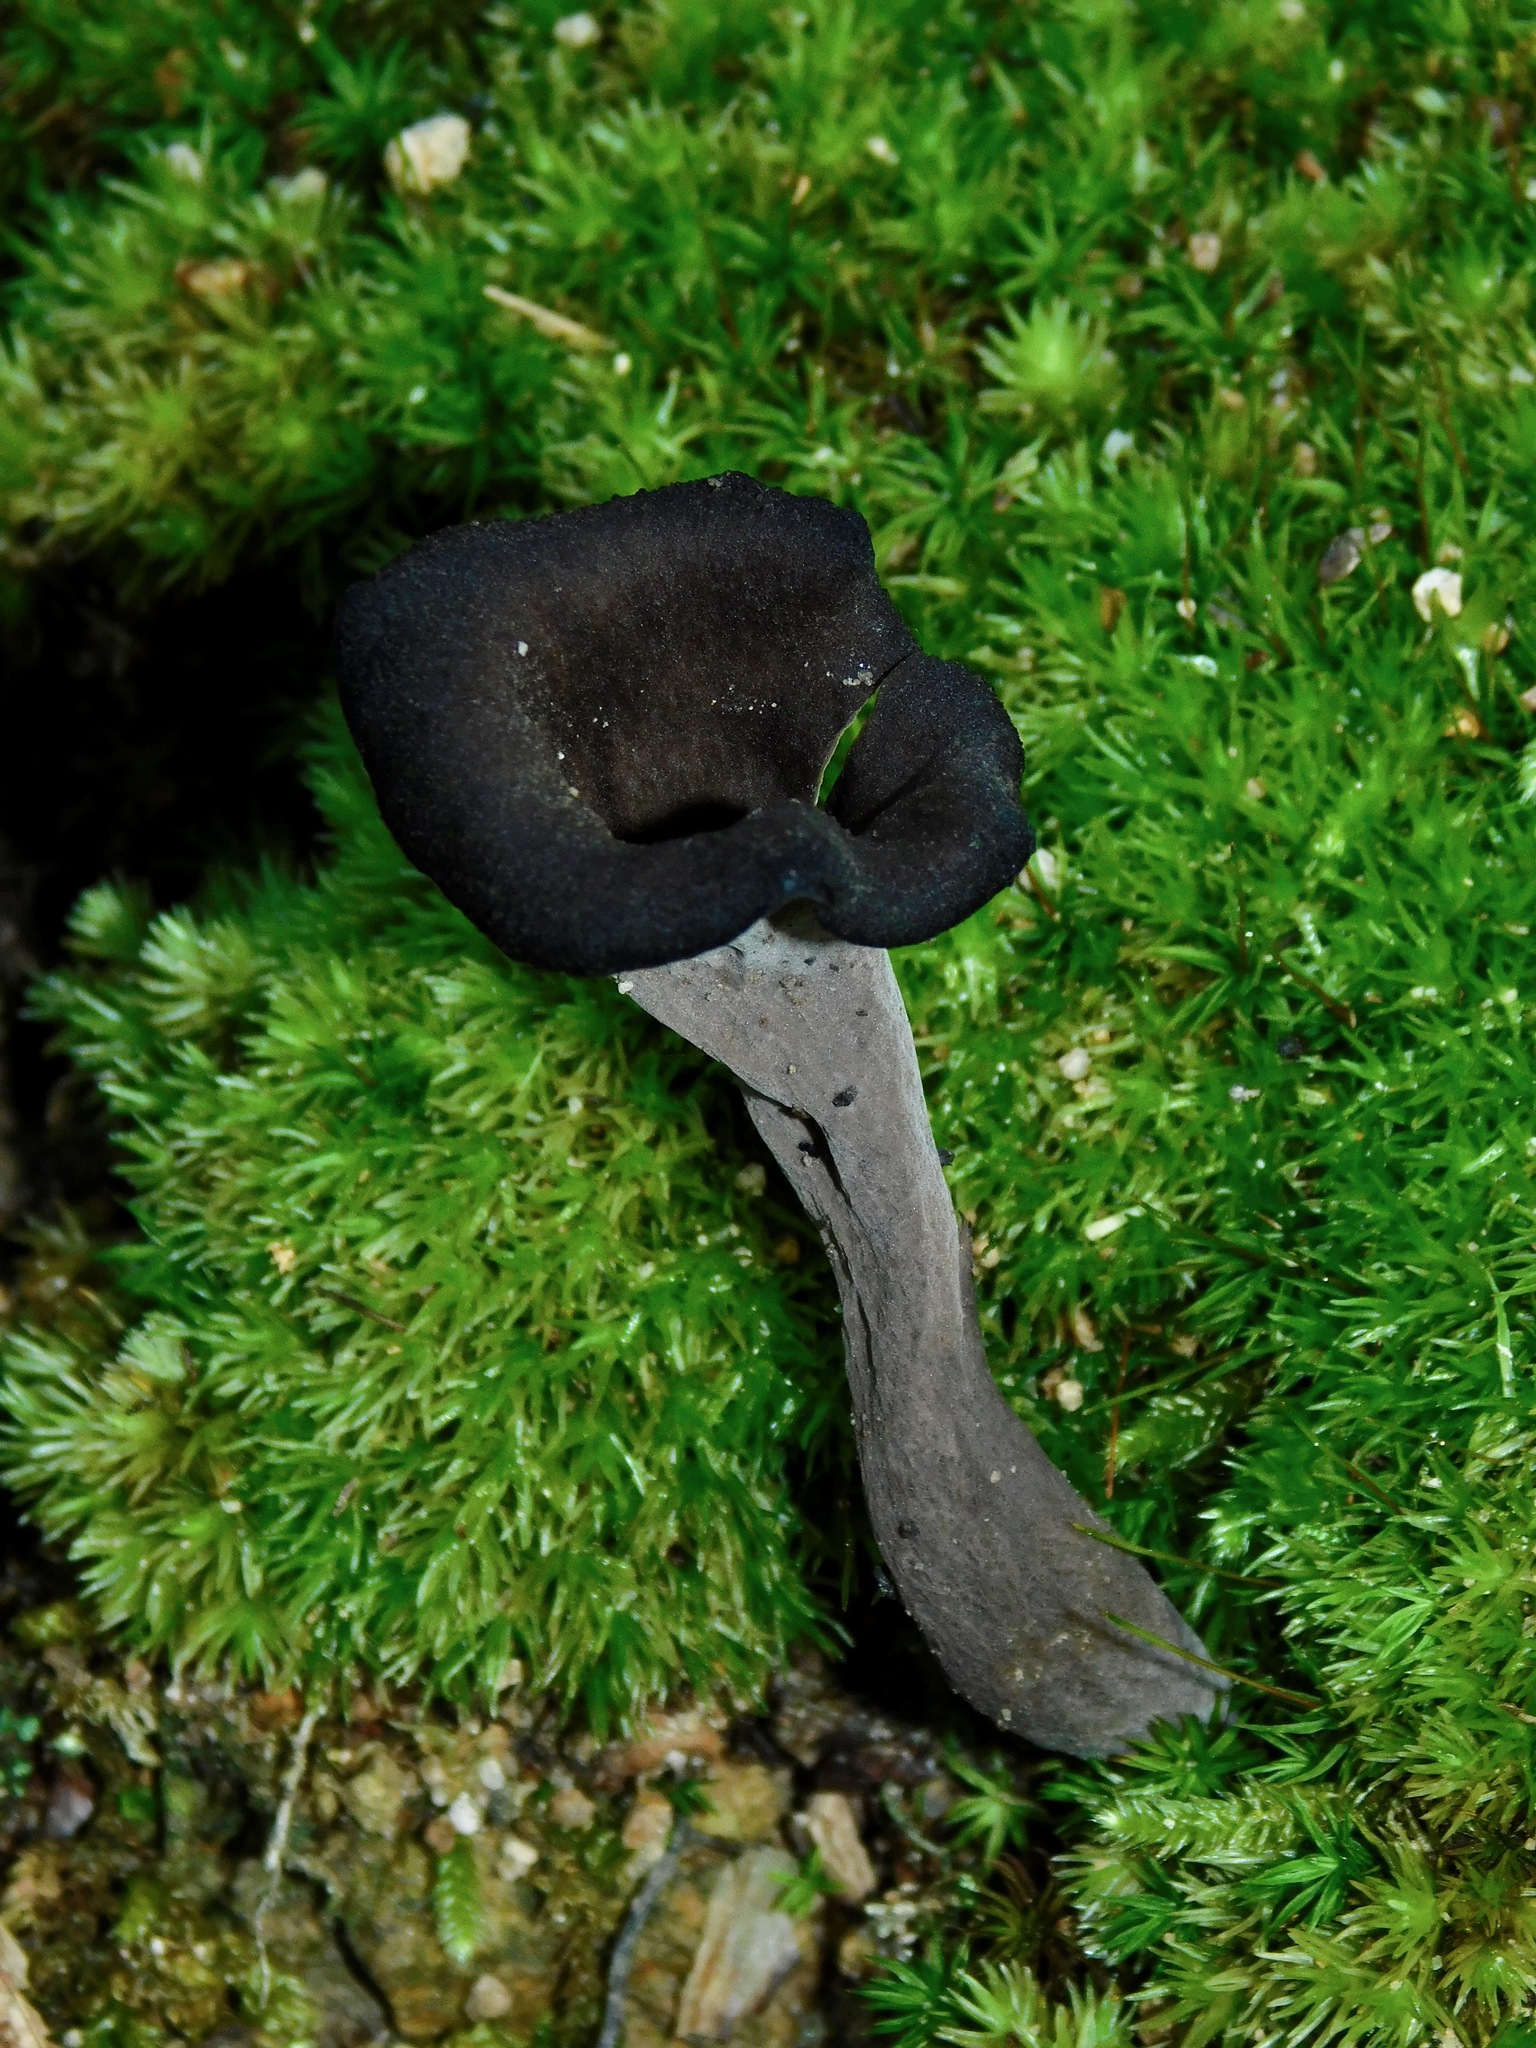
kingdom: Fungi
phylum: Basidiomycota
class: Agaricomycetes
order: Cantharellales
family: Hydnaceae
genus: Craterellus
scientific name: Craterellus cornucopioides
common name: Horn of plenty
